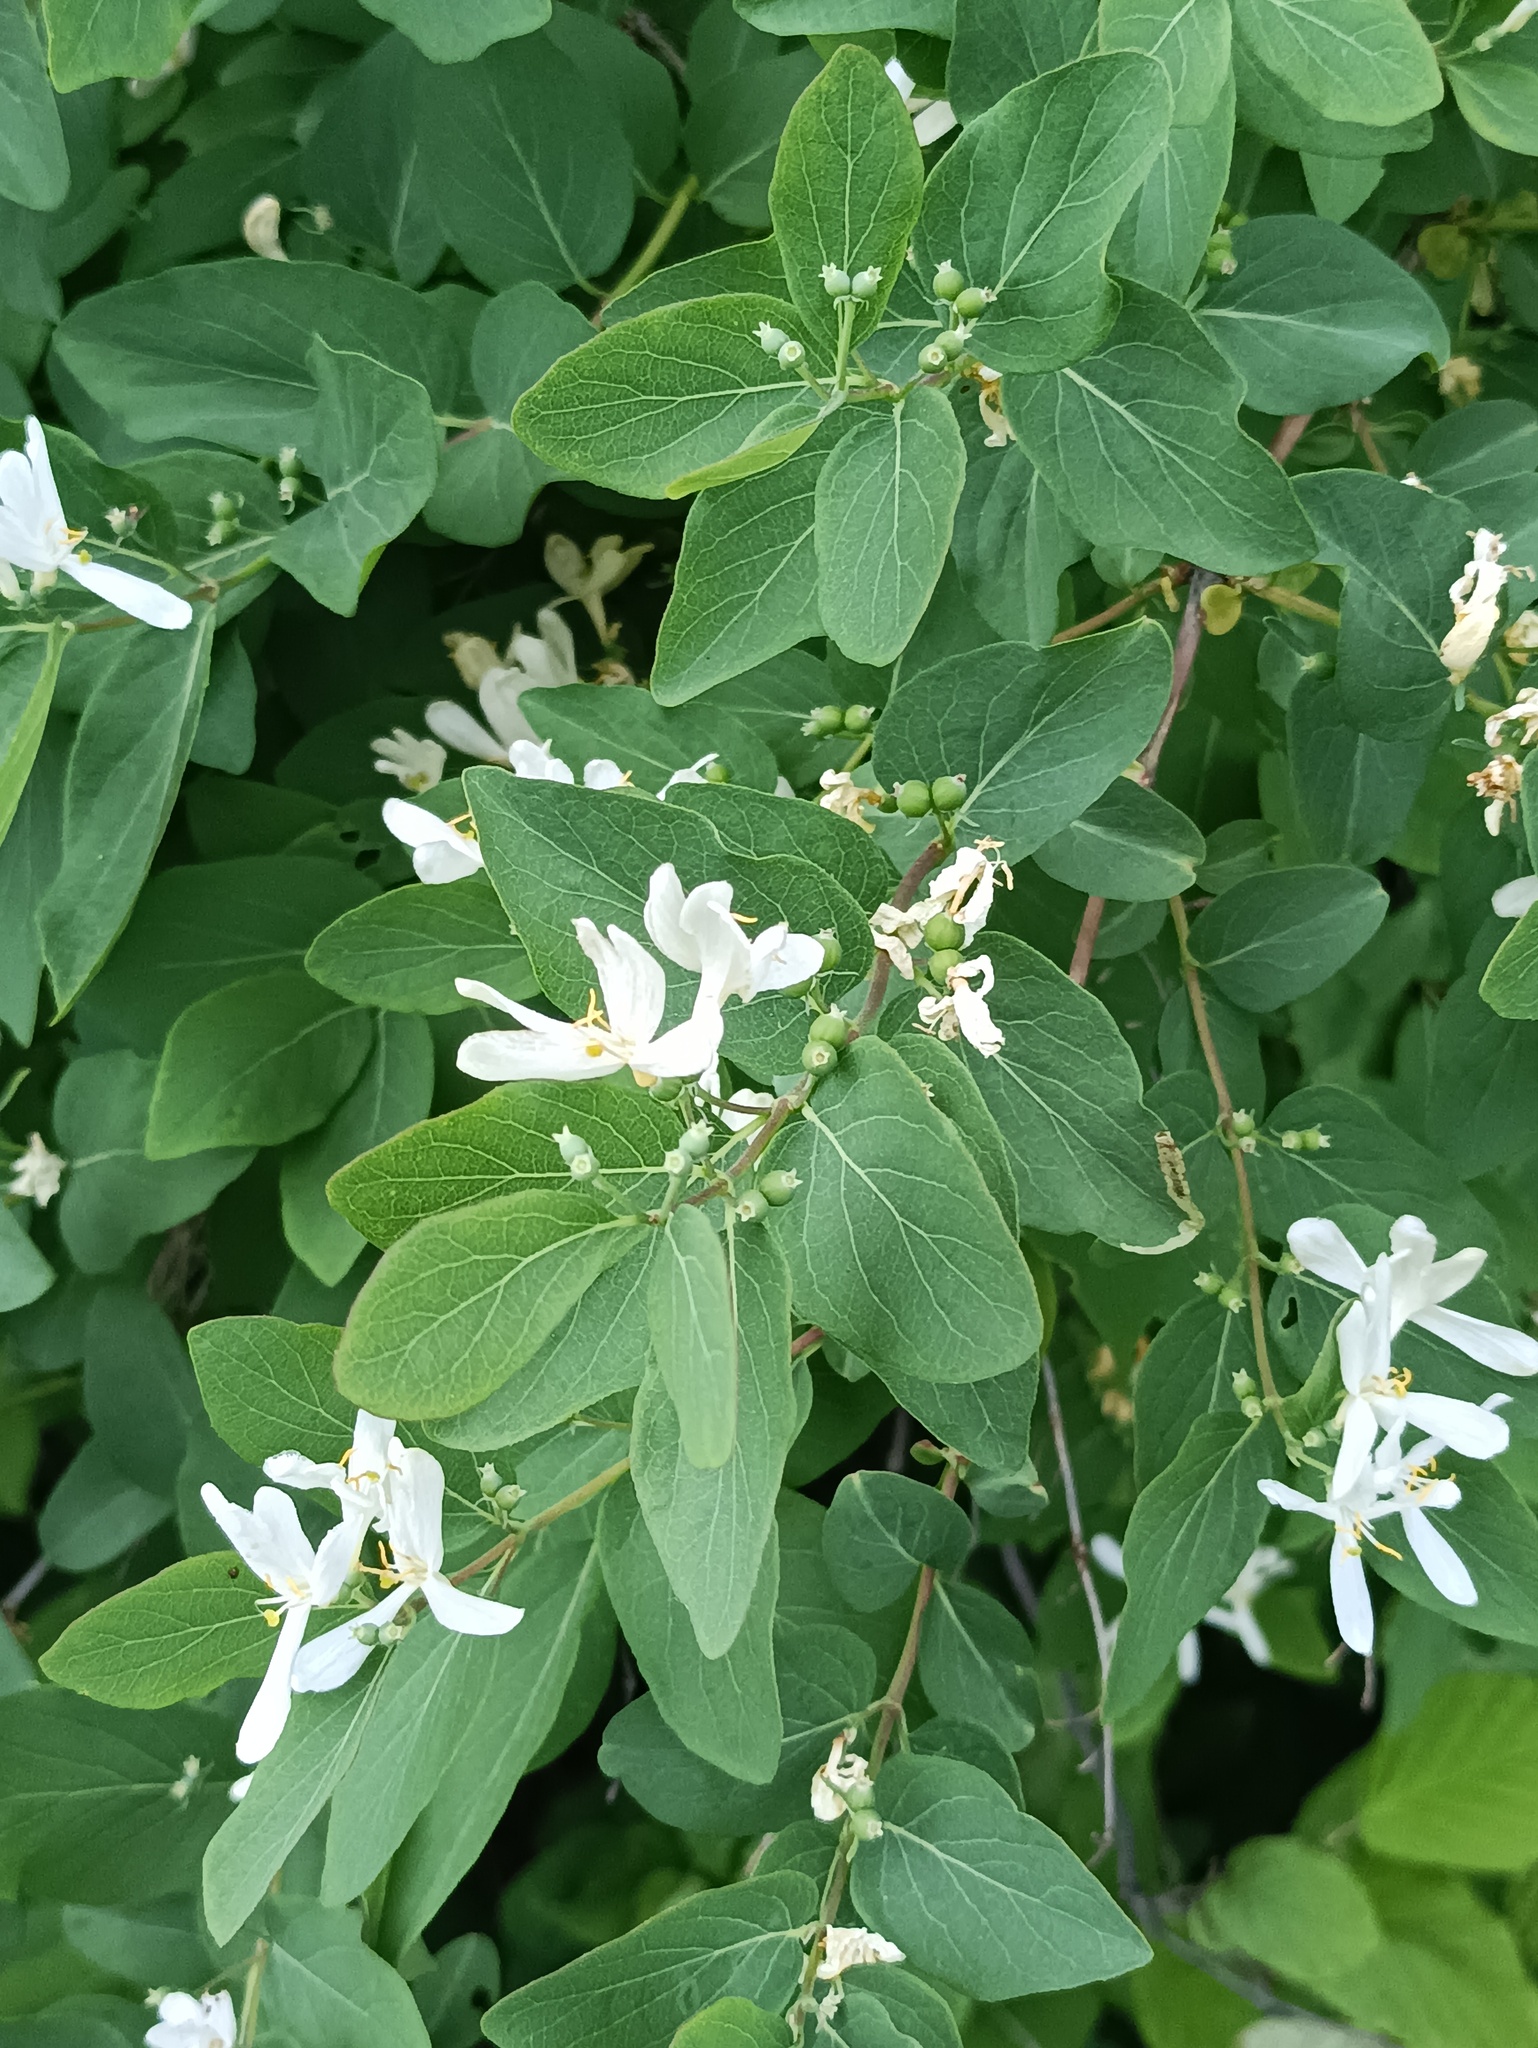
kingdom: Plantae
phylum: Tracheophyta
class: Magnoliopsida
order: Dipsacales
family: Caprifoliaceae
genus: Lonicera
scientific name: Lonicera tatarica
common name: Tatarian honeysuckle
